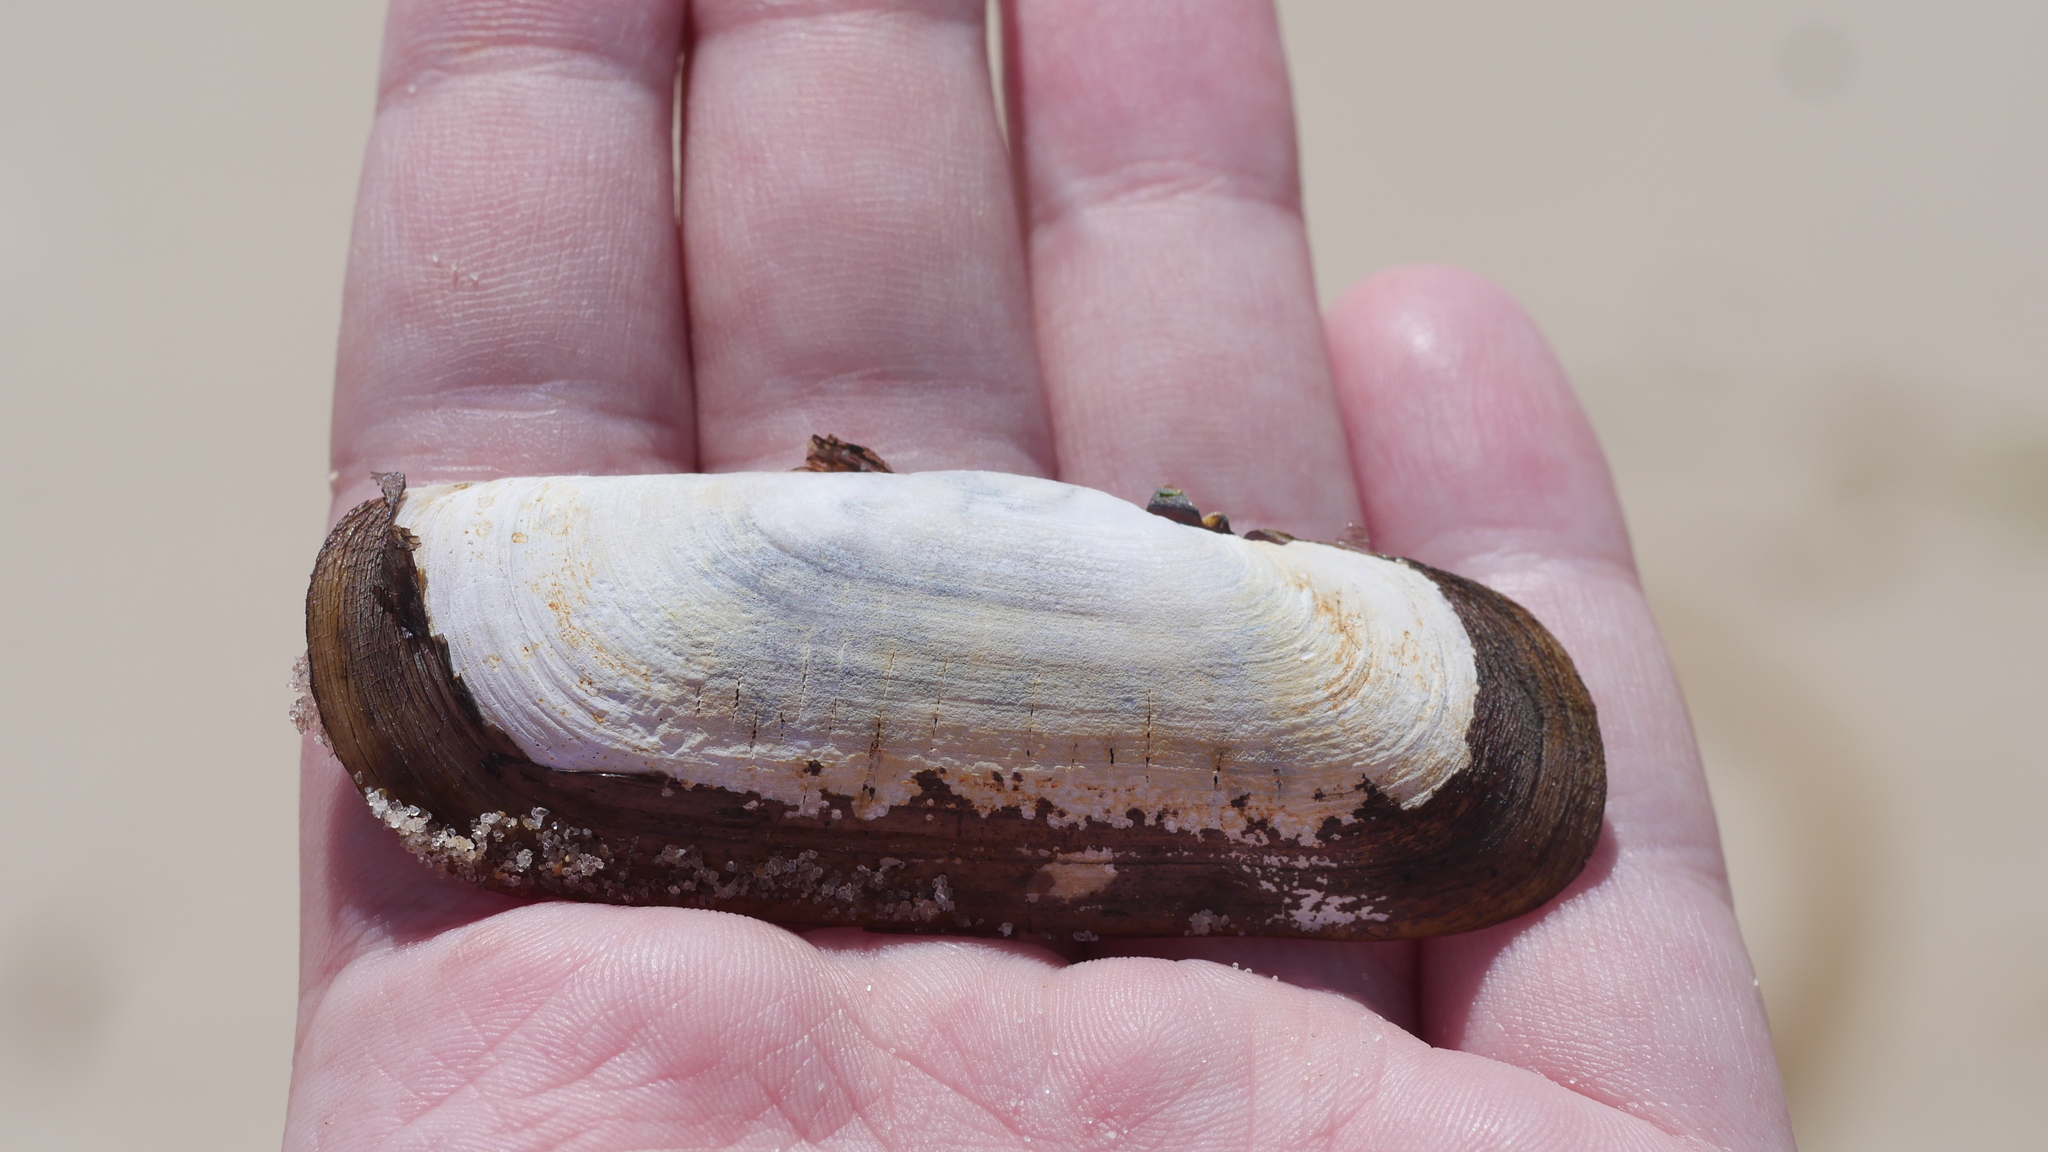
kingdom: Animalia
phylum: Mollusca
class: Bivalvia
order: Cardiida
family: Solecurtidae
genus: Tagelus
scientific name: Tagelus plebeius
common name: Stout tagelus
